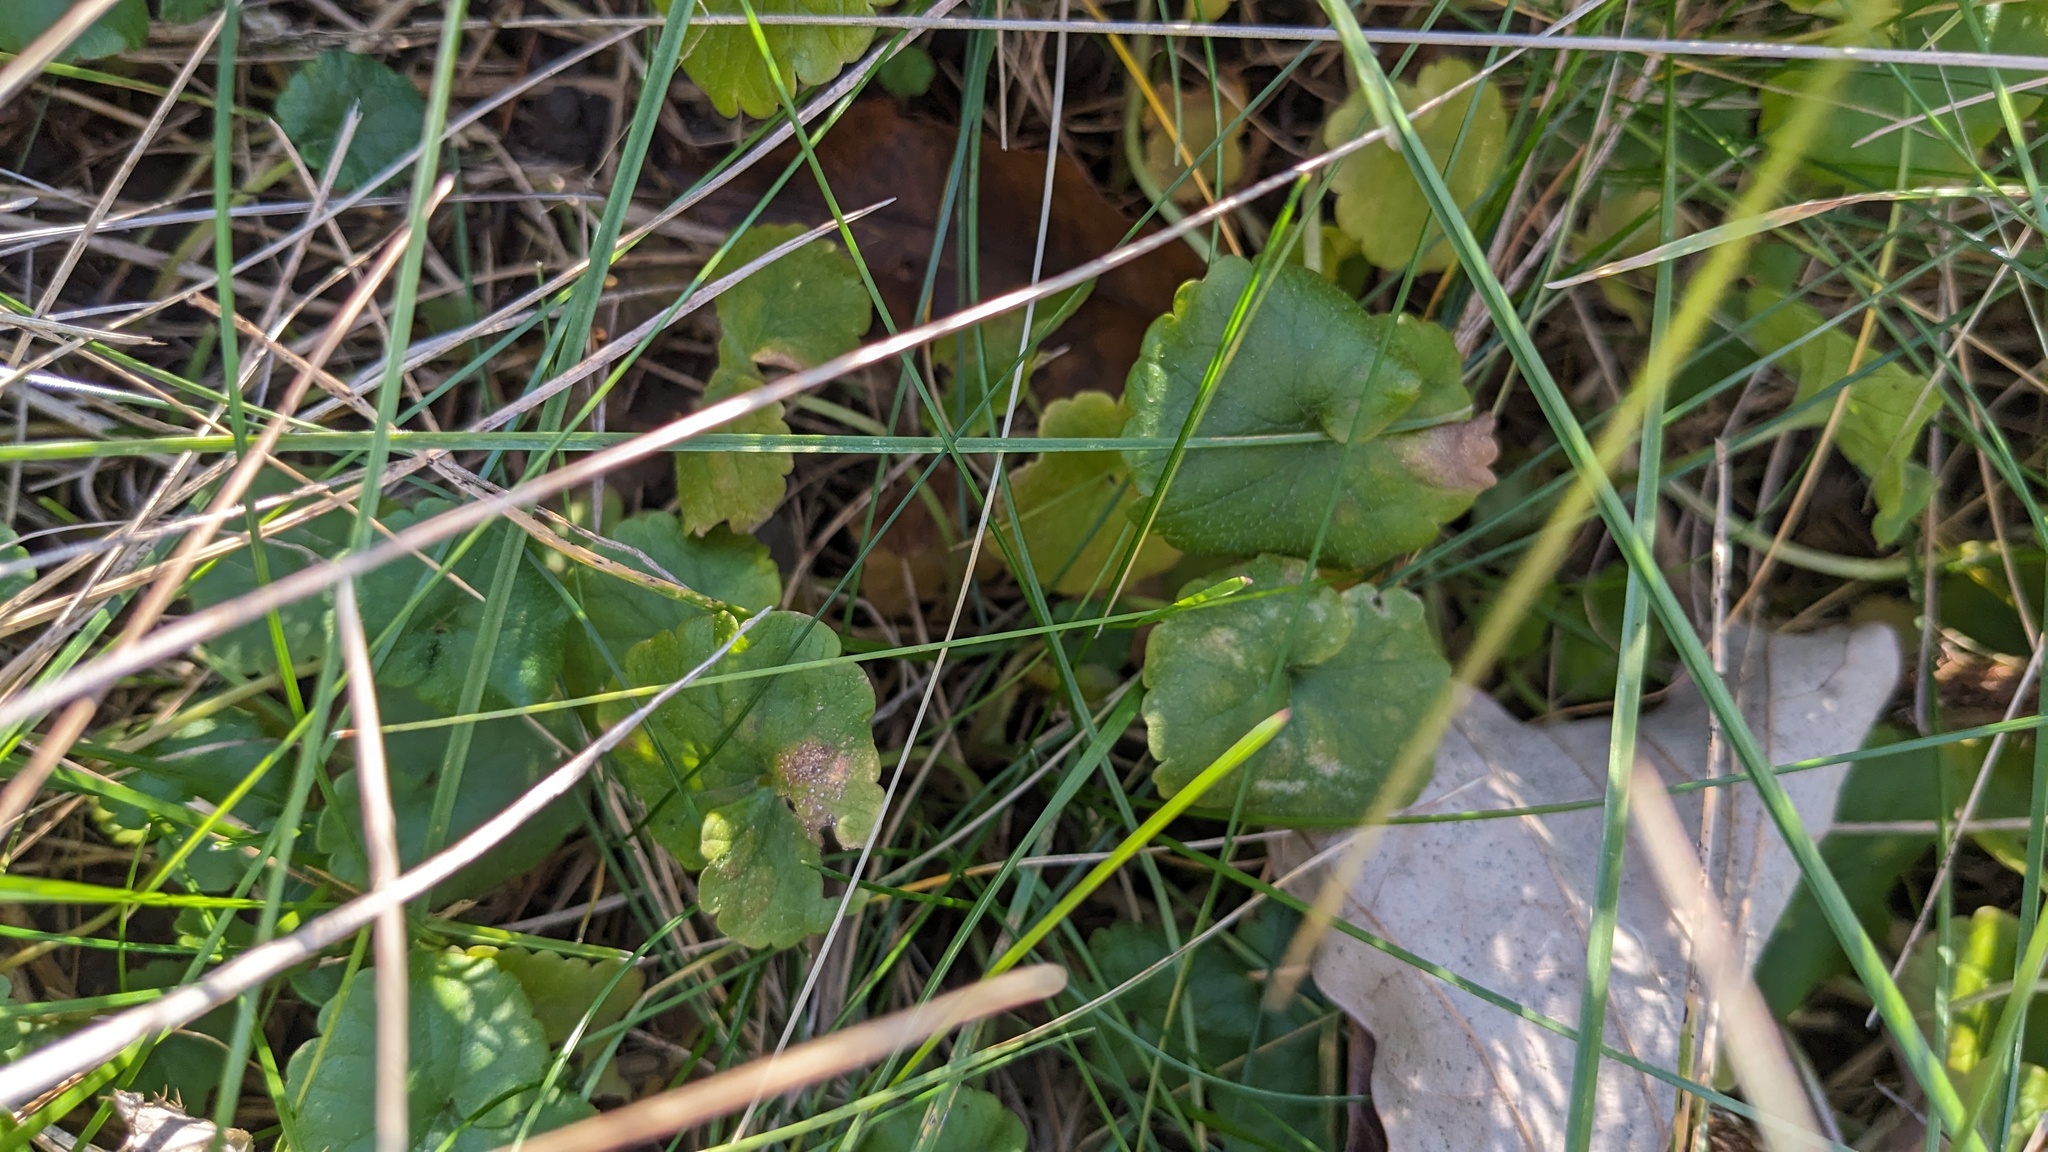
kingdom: Plantae
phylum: Tracheophyta
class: Magnoliopsida
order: Lamiales
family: Lamiaceae
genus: Glechoma
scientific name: Glechoma hederacea
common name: Ground ivy
